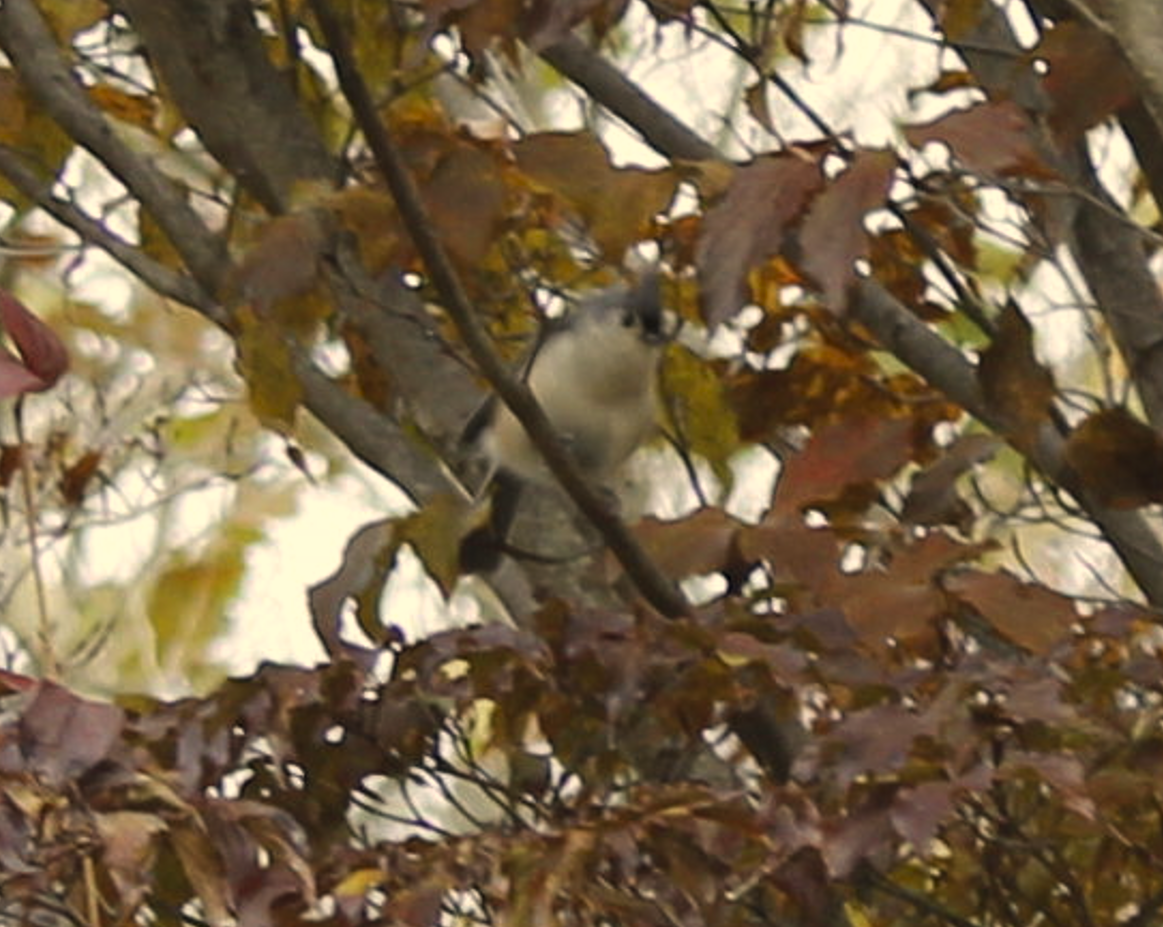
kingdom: Animalia
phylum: Chordata
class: Aves
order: Passeriformes
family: Paridae
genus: Baeolophus
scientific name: Baeolophus bicolor
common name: Tufted titmouse
